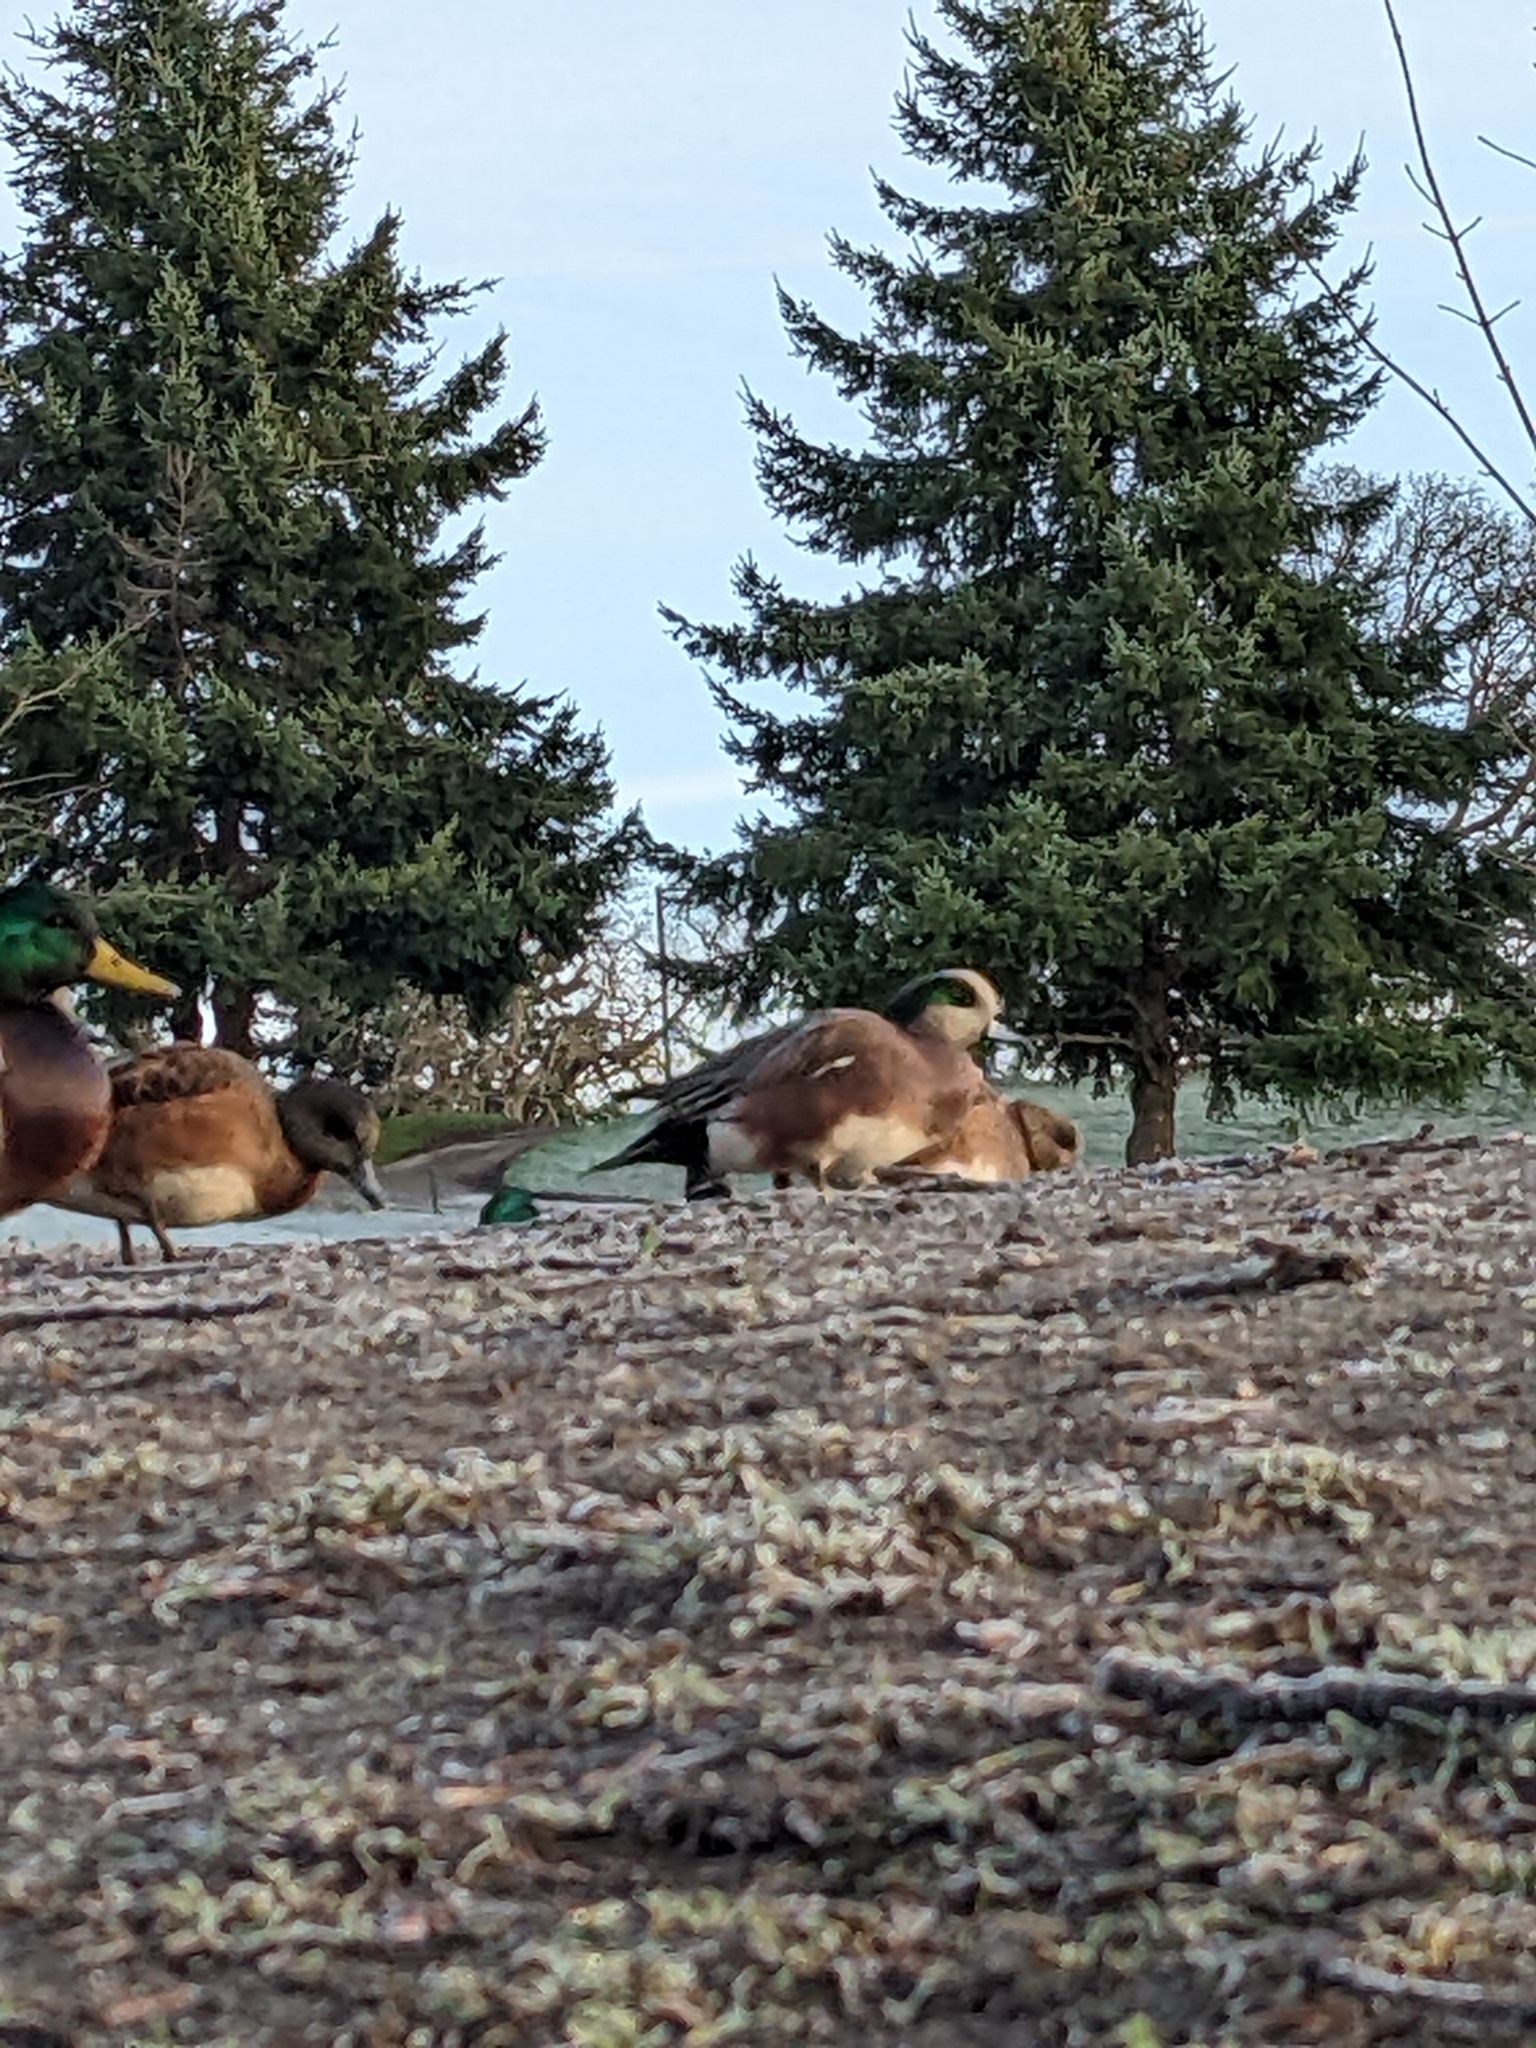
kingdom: Animalia
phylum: Chordata
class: Aves
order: Anseriformes
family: Anatidae
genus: Mareca
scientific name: Mareca americana
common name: American wigeon
